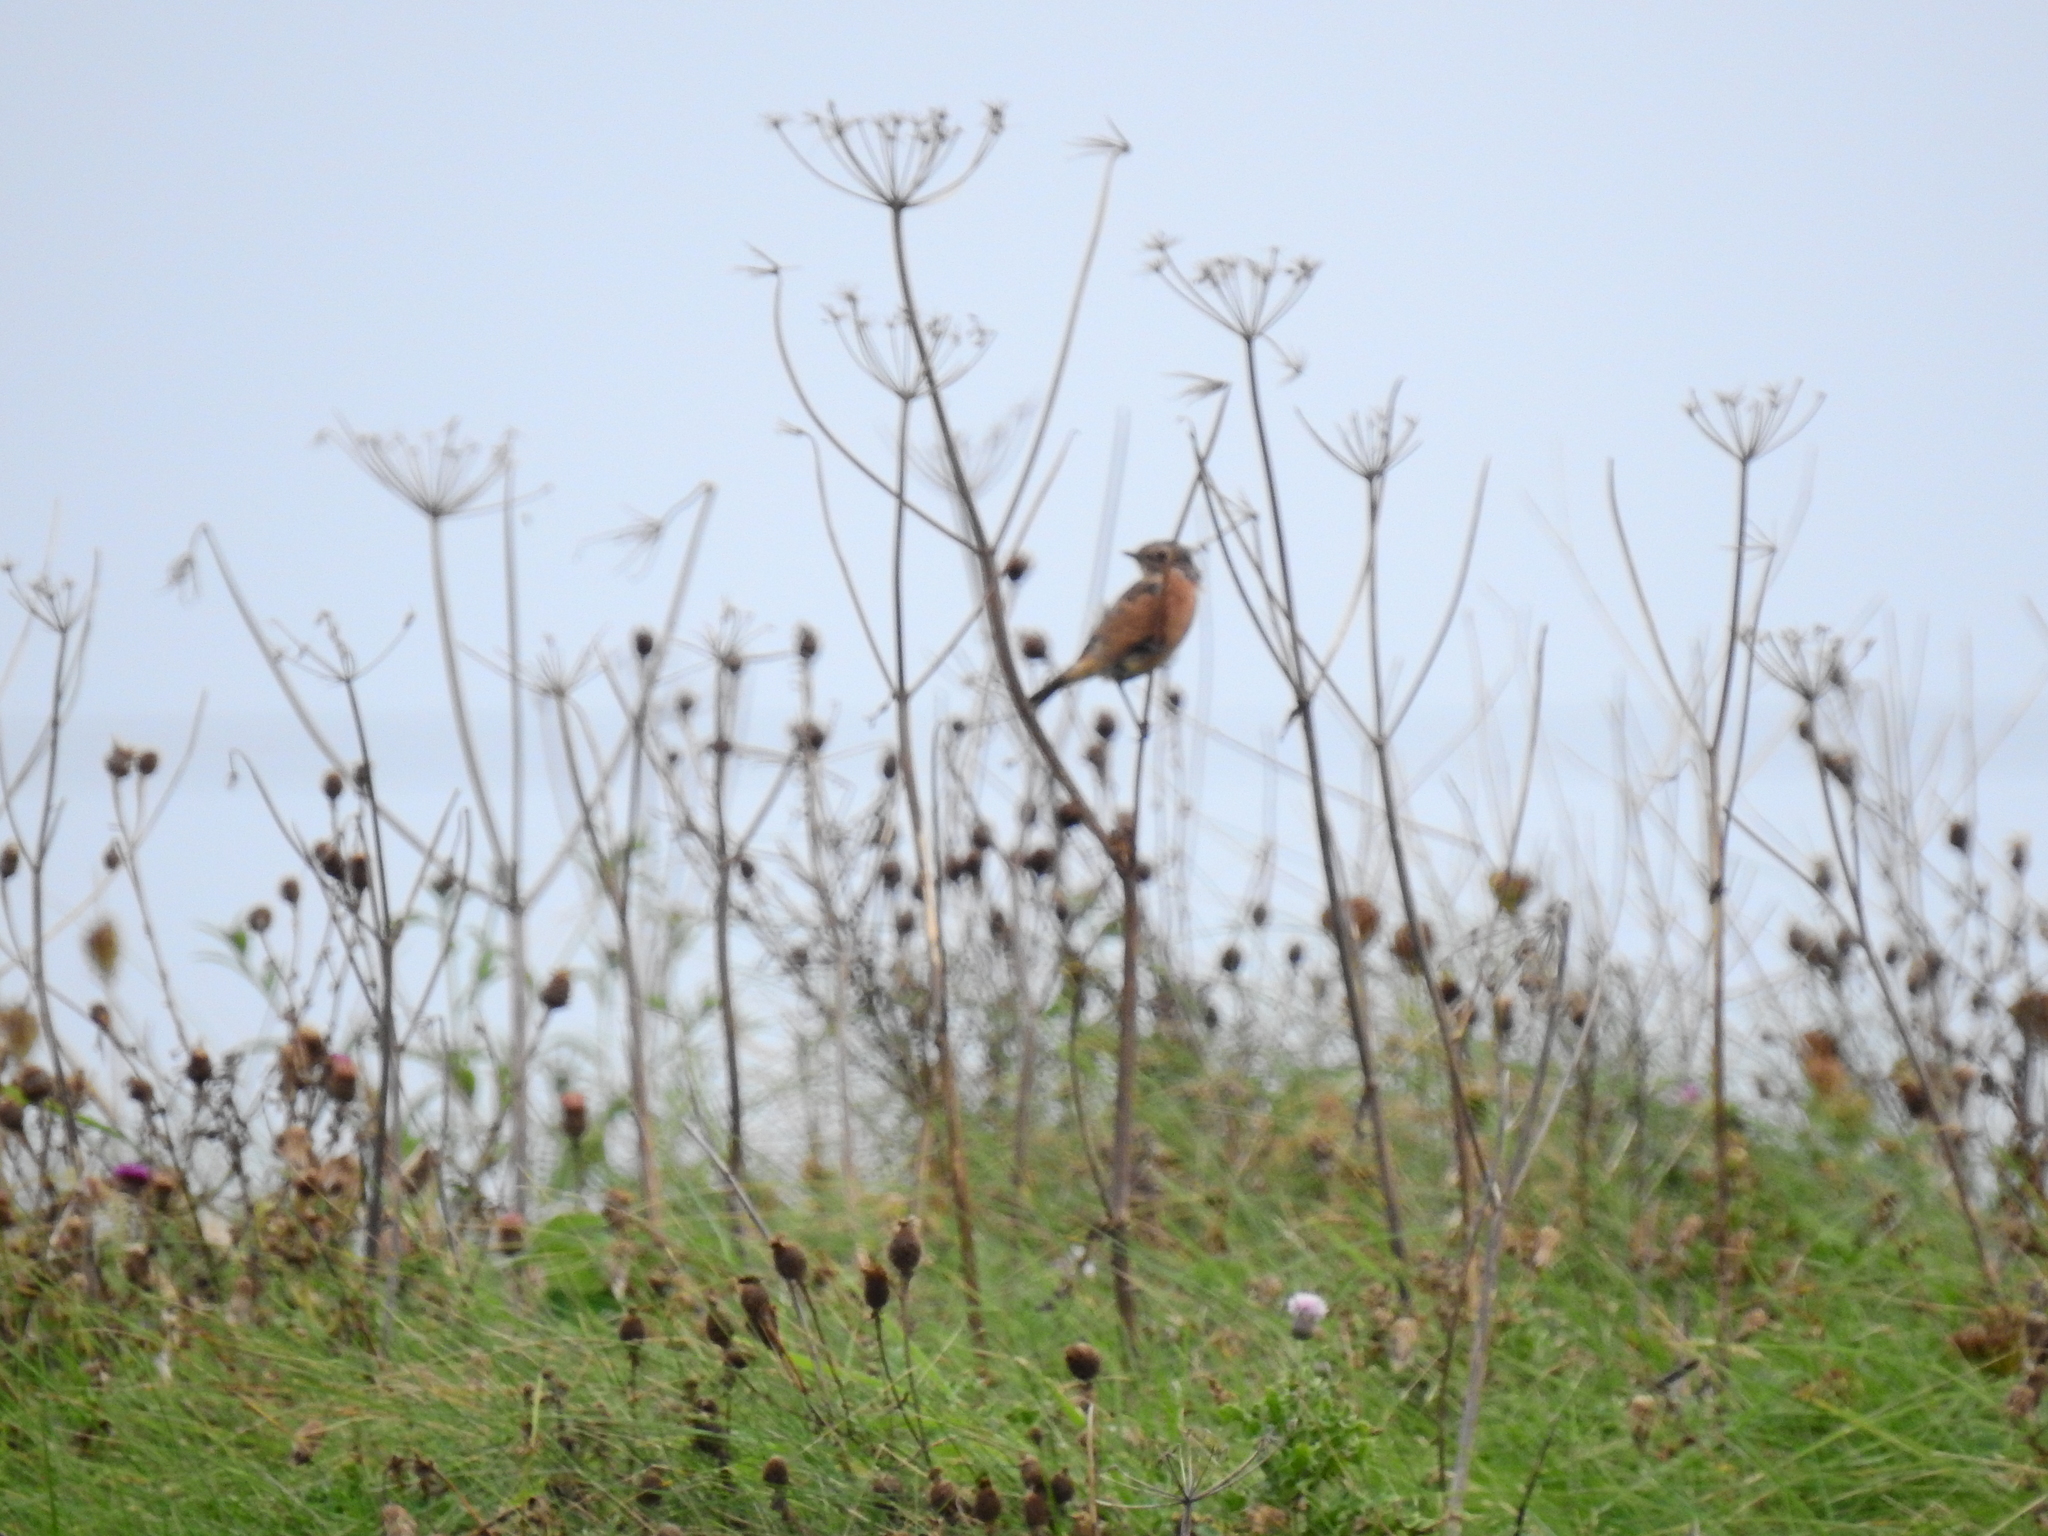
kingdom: Animalia
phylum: Chordata
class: Aves
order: Passeriformes
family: Muscicapidae
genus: Saxicola
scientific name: Saxicola rubicola
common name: European stonechat
